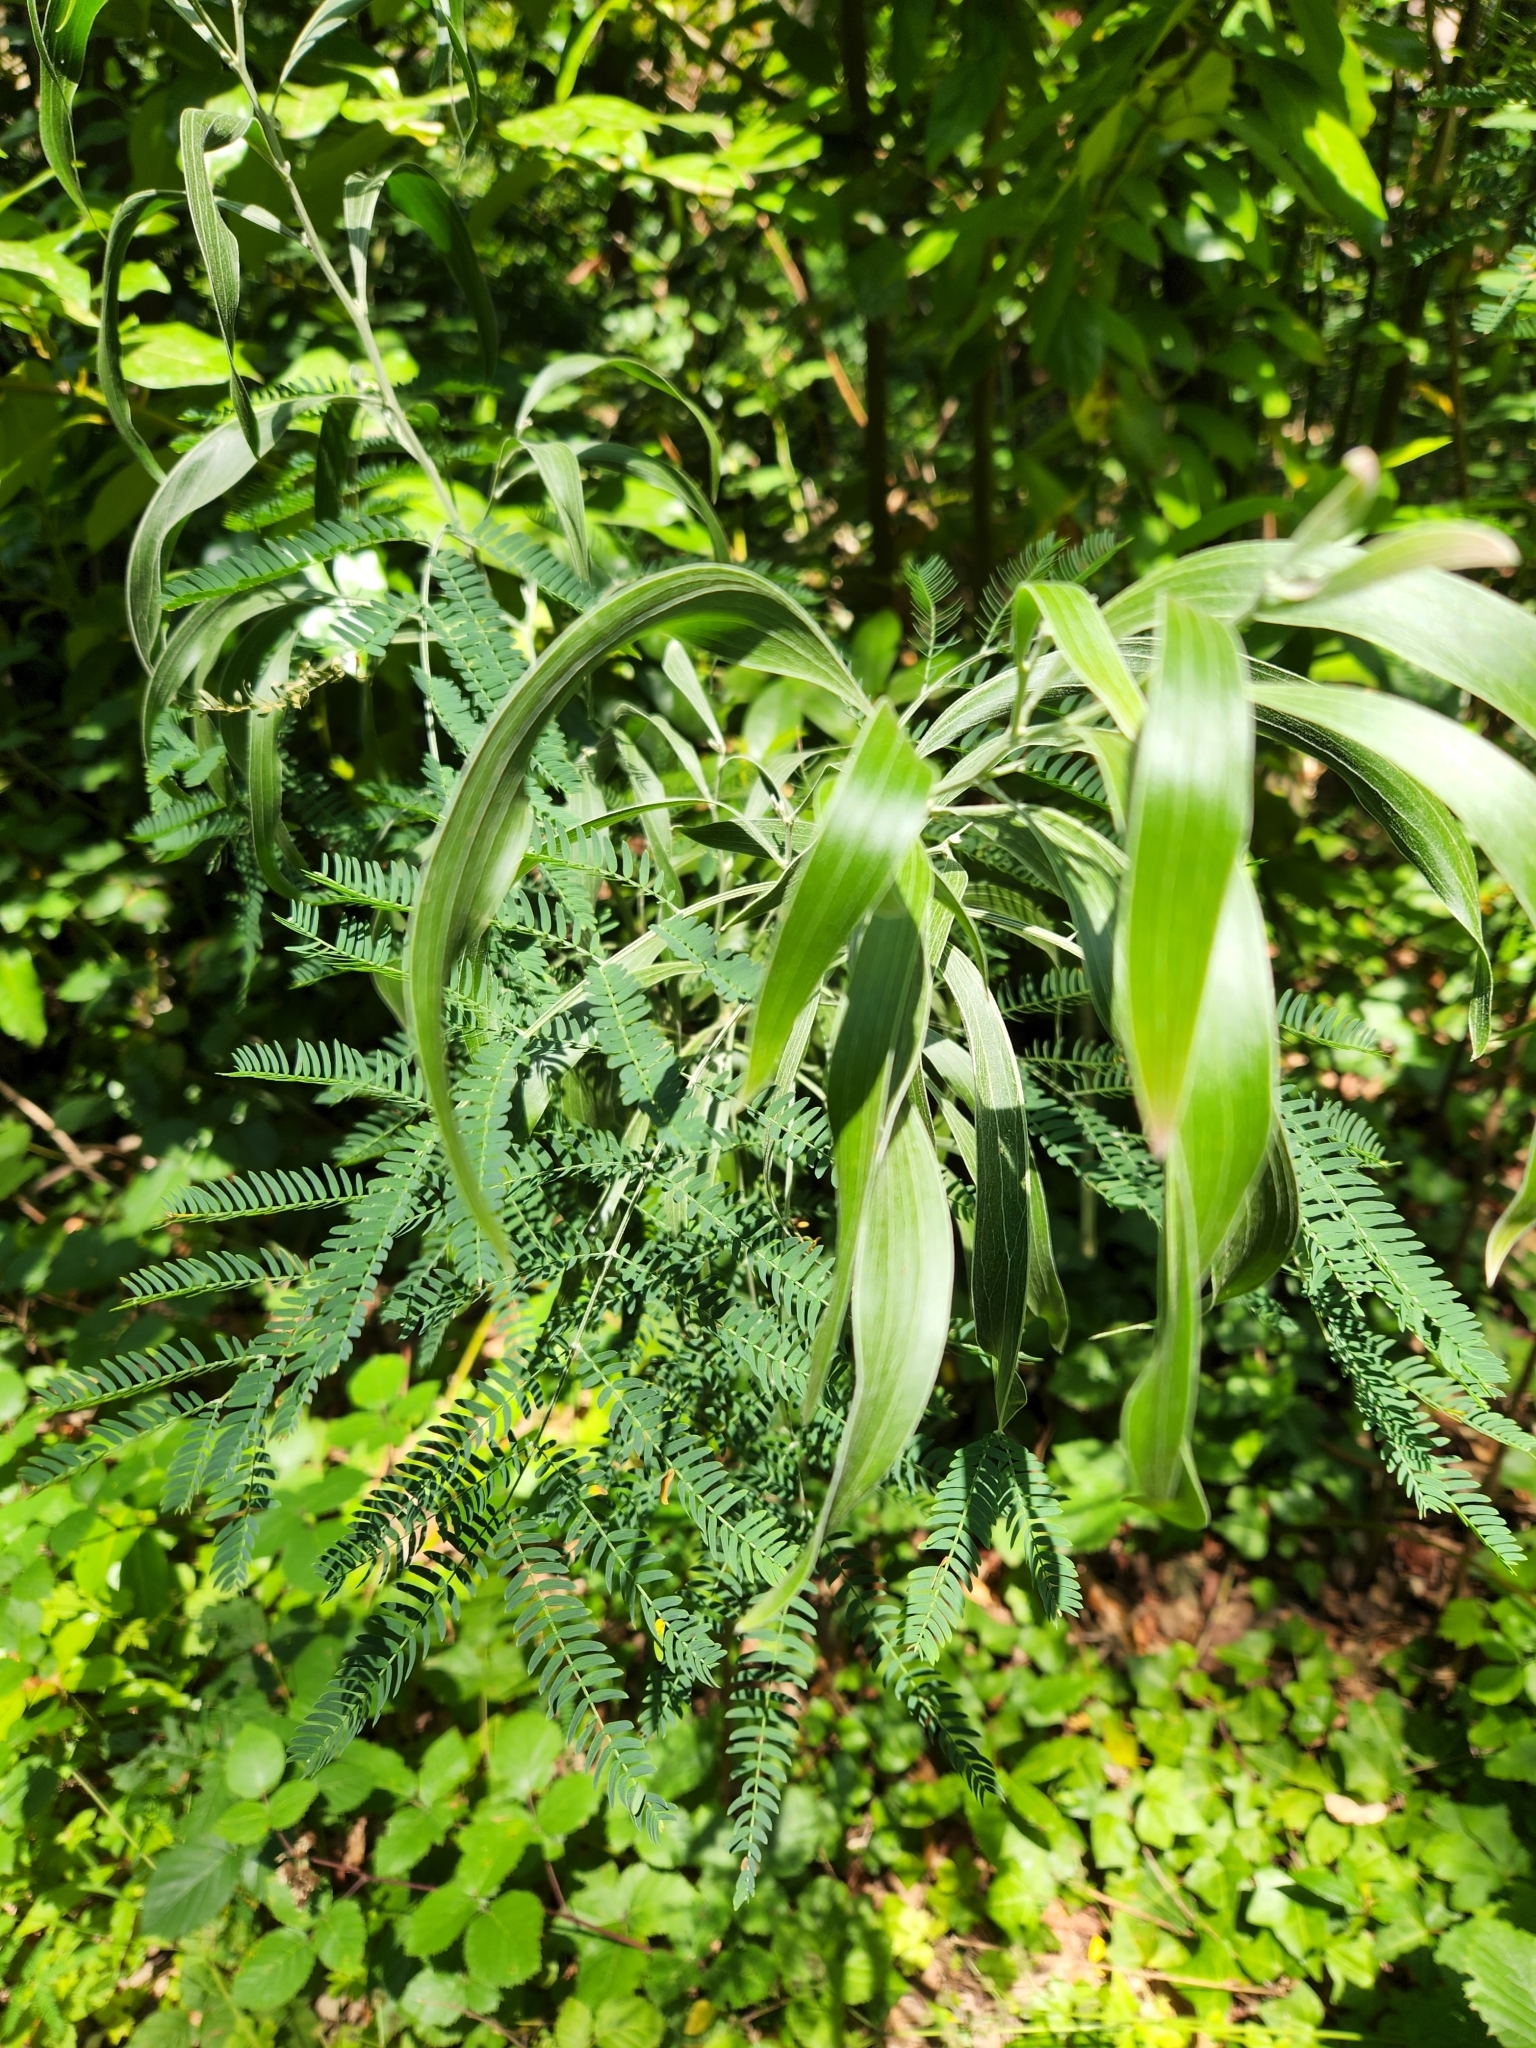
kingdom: Plantae
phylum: Tracheophyta
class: Magnoliopsida
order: Fabales
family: Fabaceae
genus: Acacia
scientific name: Acacia melanoxylon
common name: Blackwood
